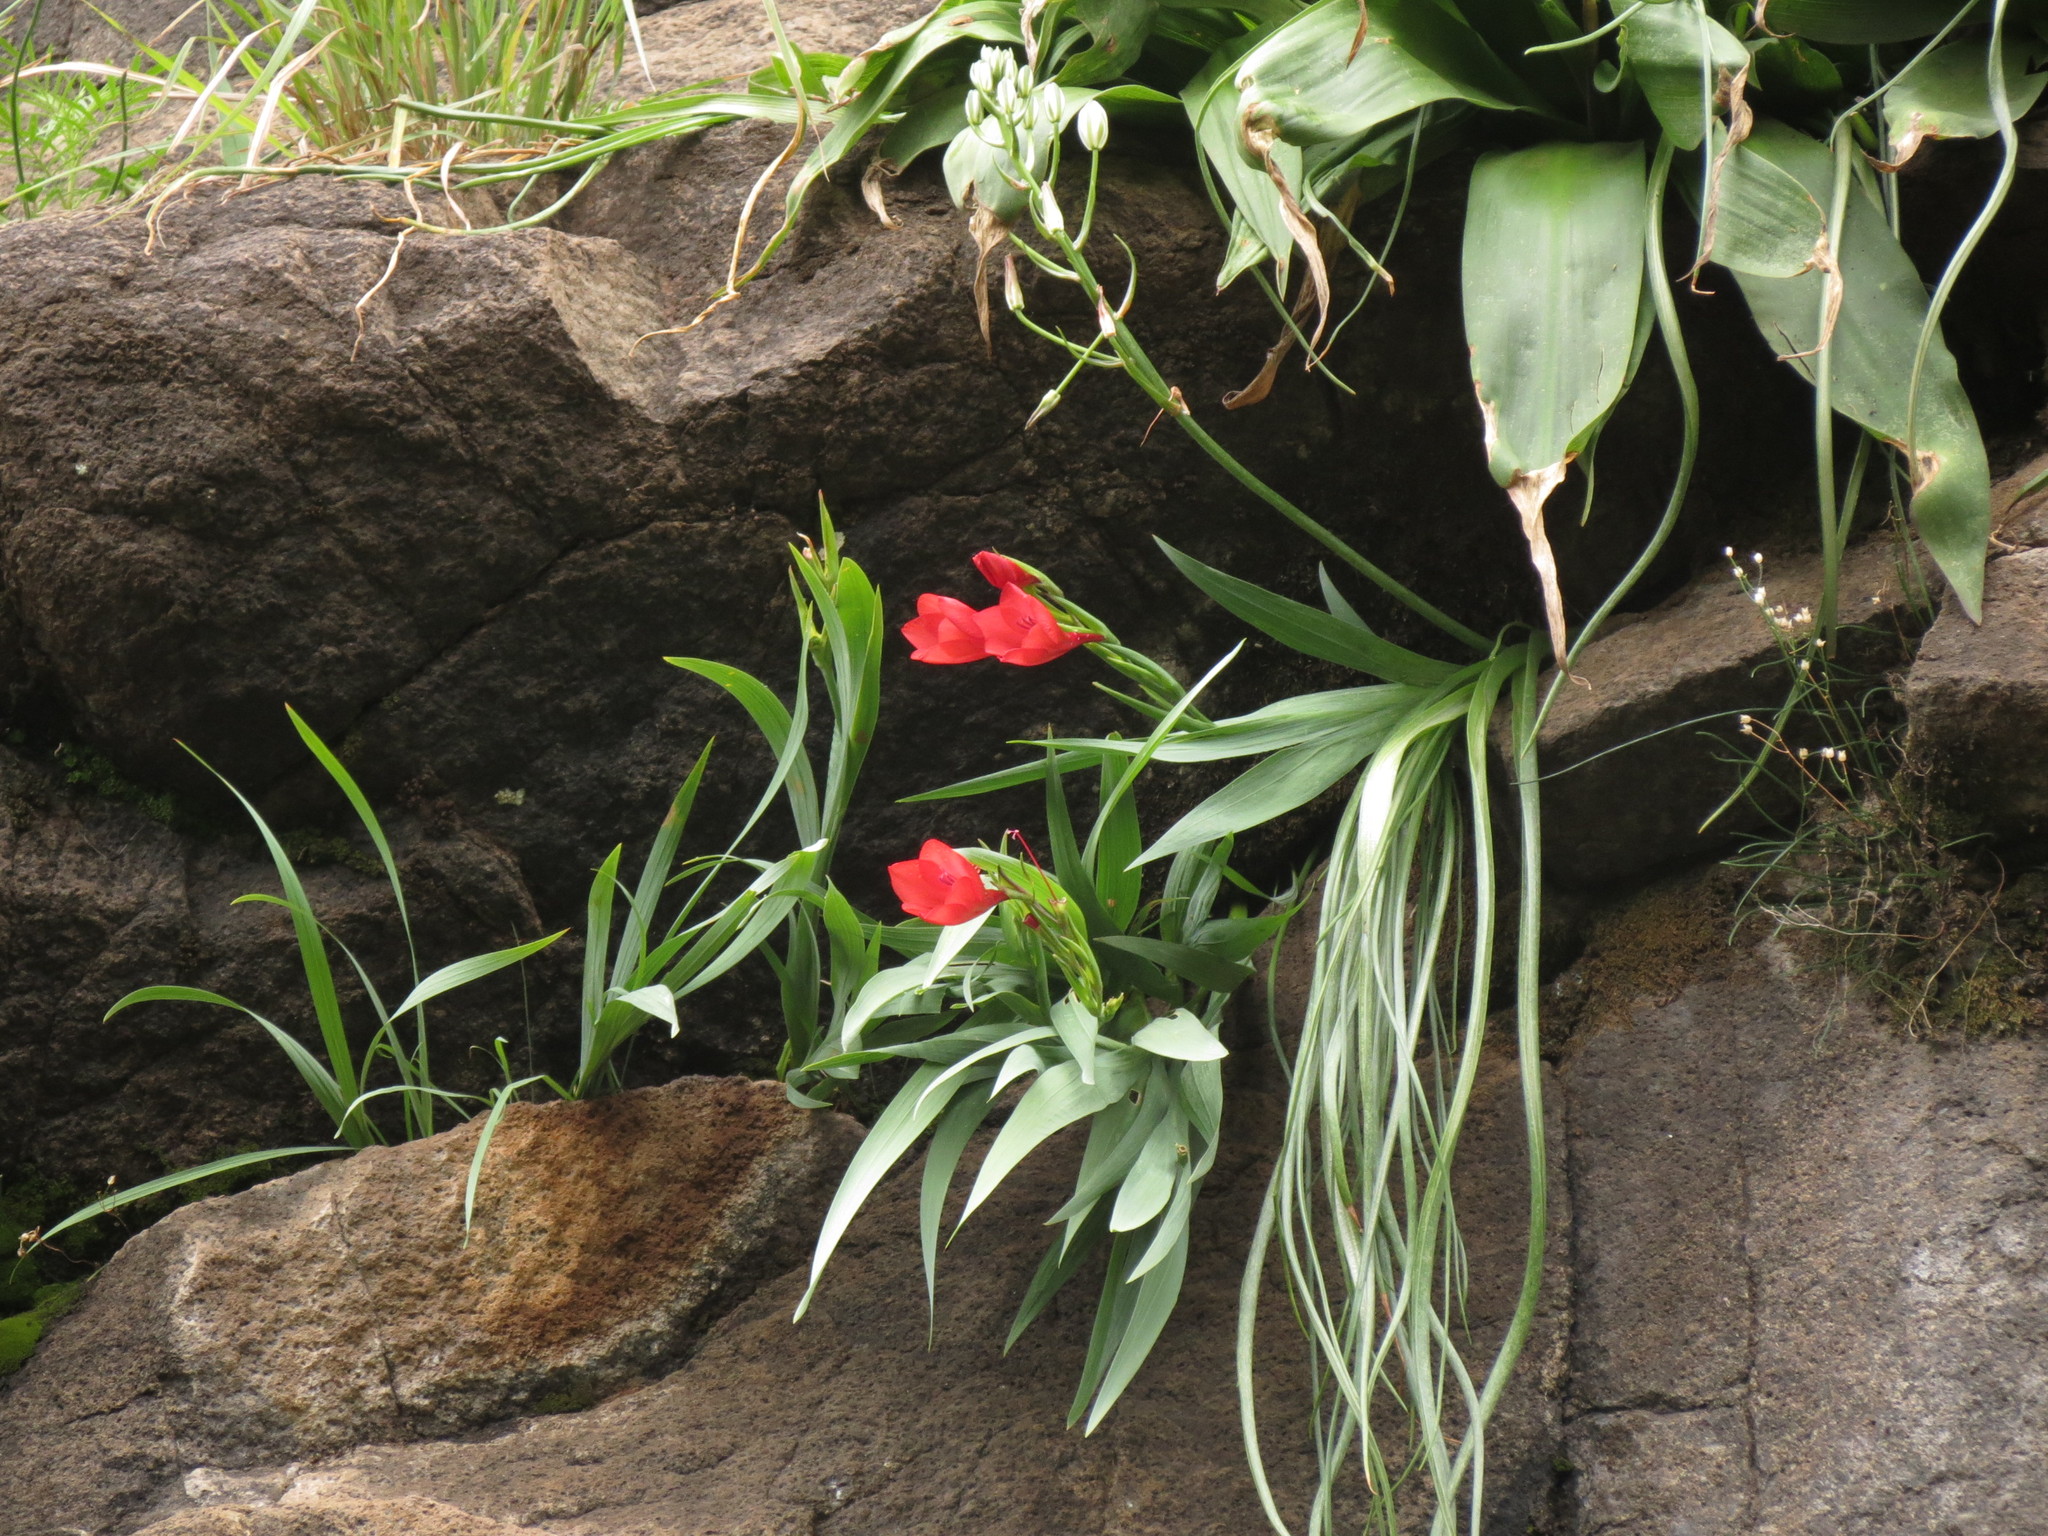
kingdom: Plantae
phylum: Tracheophyta
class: Liliopsida
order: Asparagales
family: Iridaceae
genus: Gladiolus
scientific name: Gladiolus flanaganii
